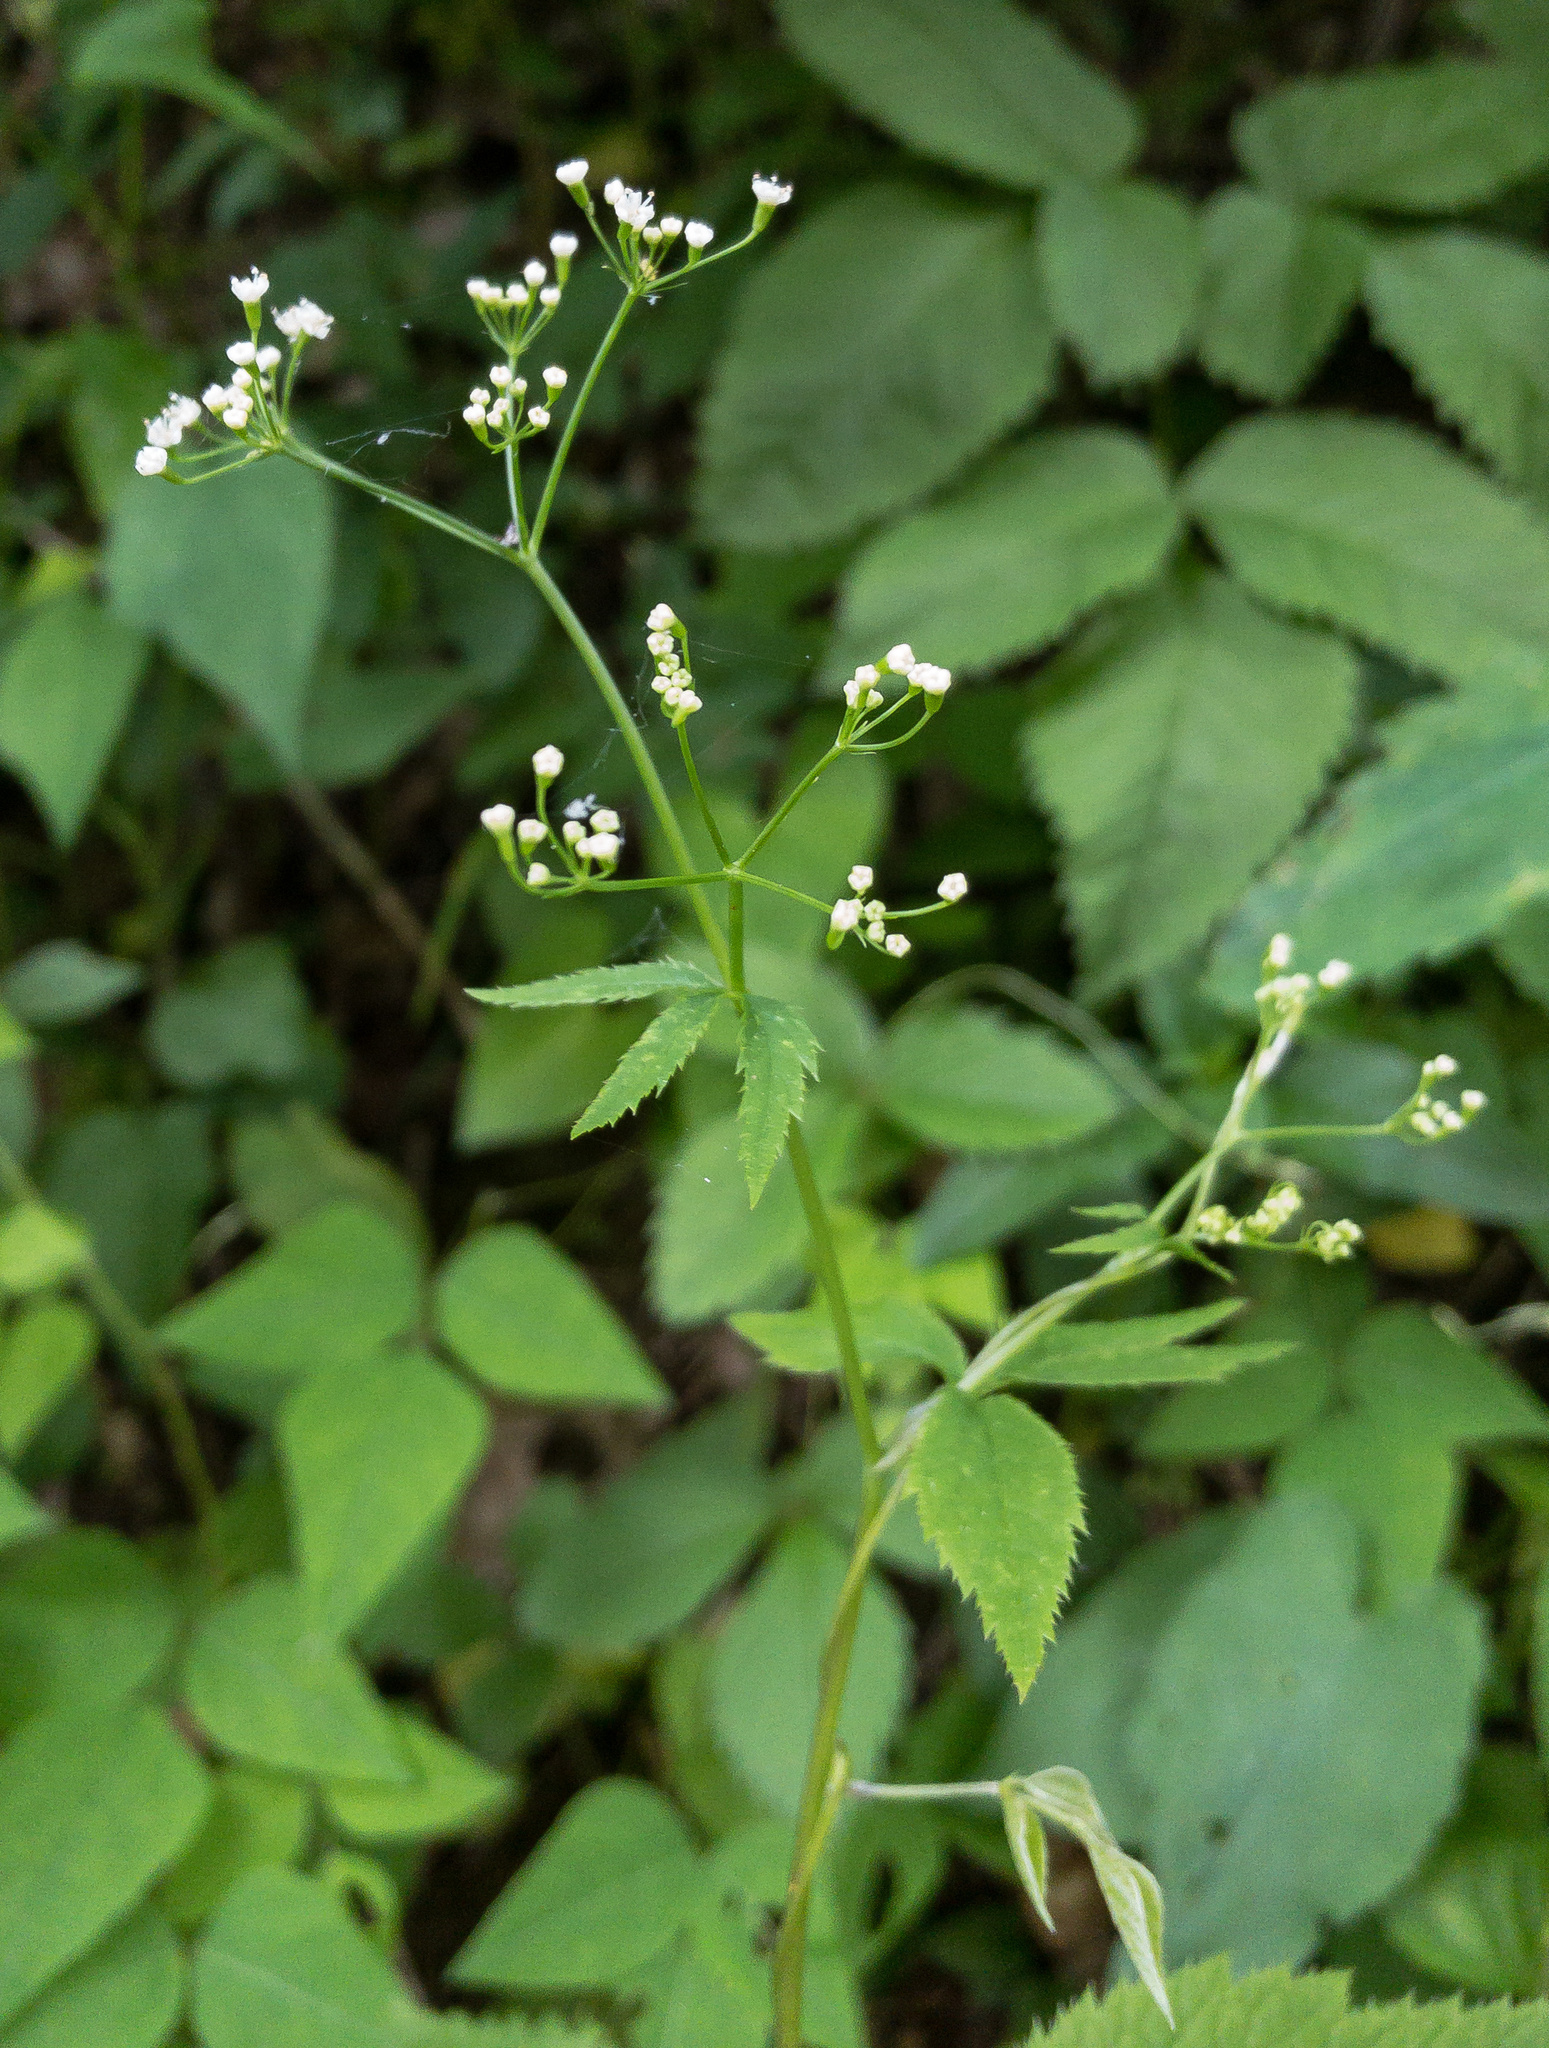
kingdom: Plantae
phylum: Tracheophyta
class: Magnoliopsida
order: Apiales
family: Apiaceae
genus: Cryptotaenia
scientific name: Cryptotaenia canadensis
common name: Honewort
